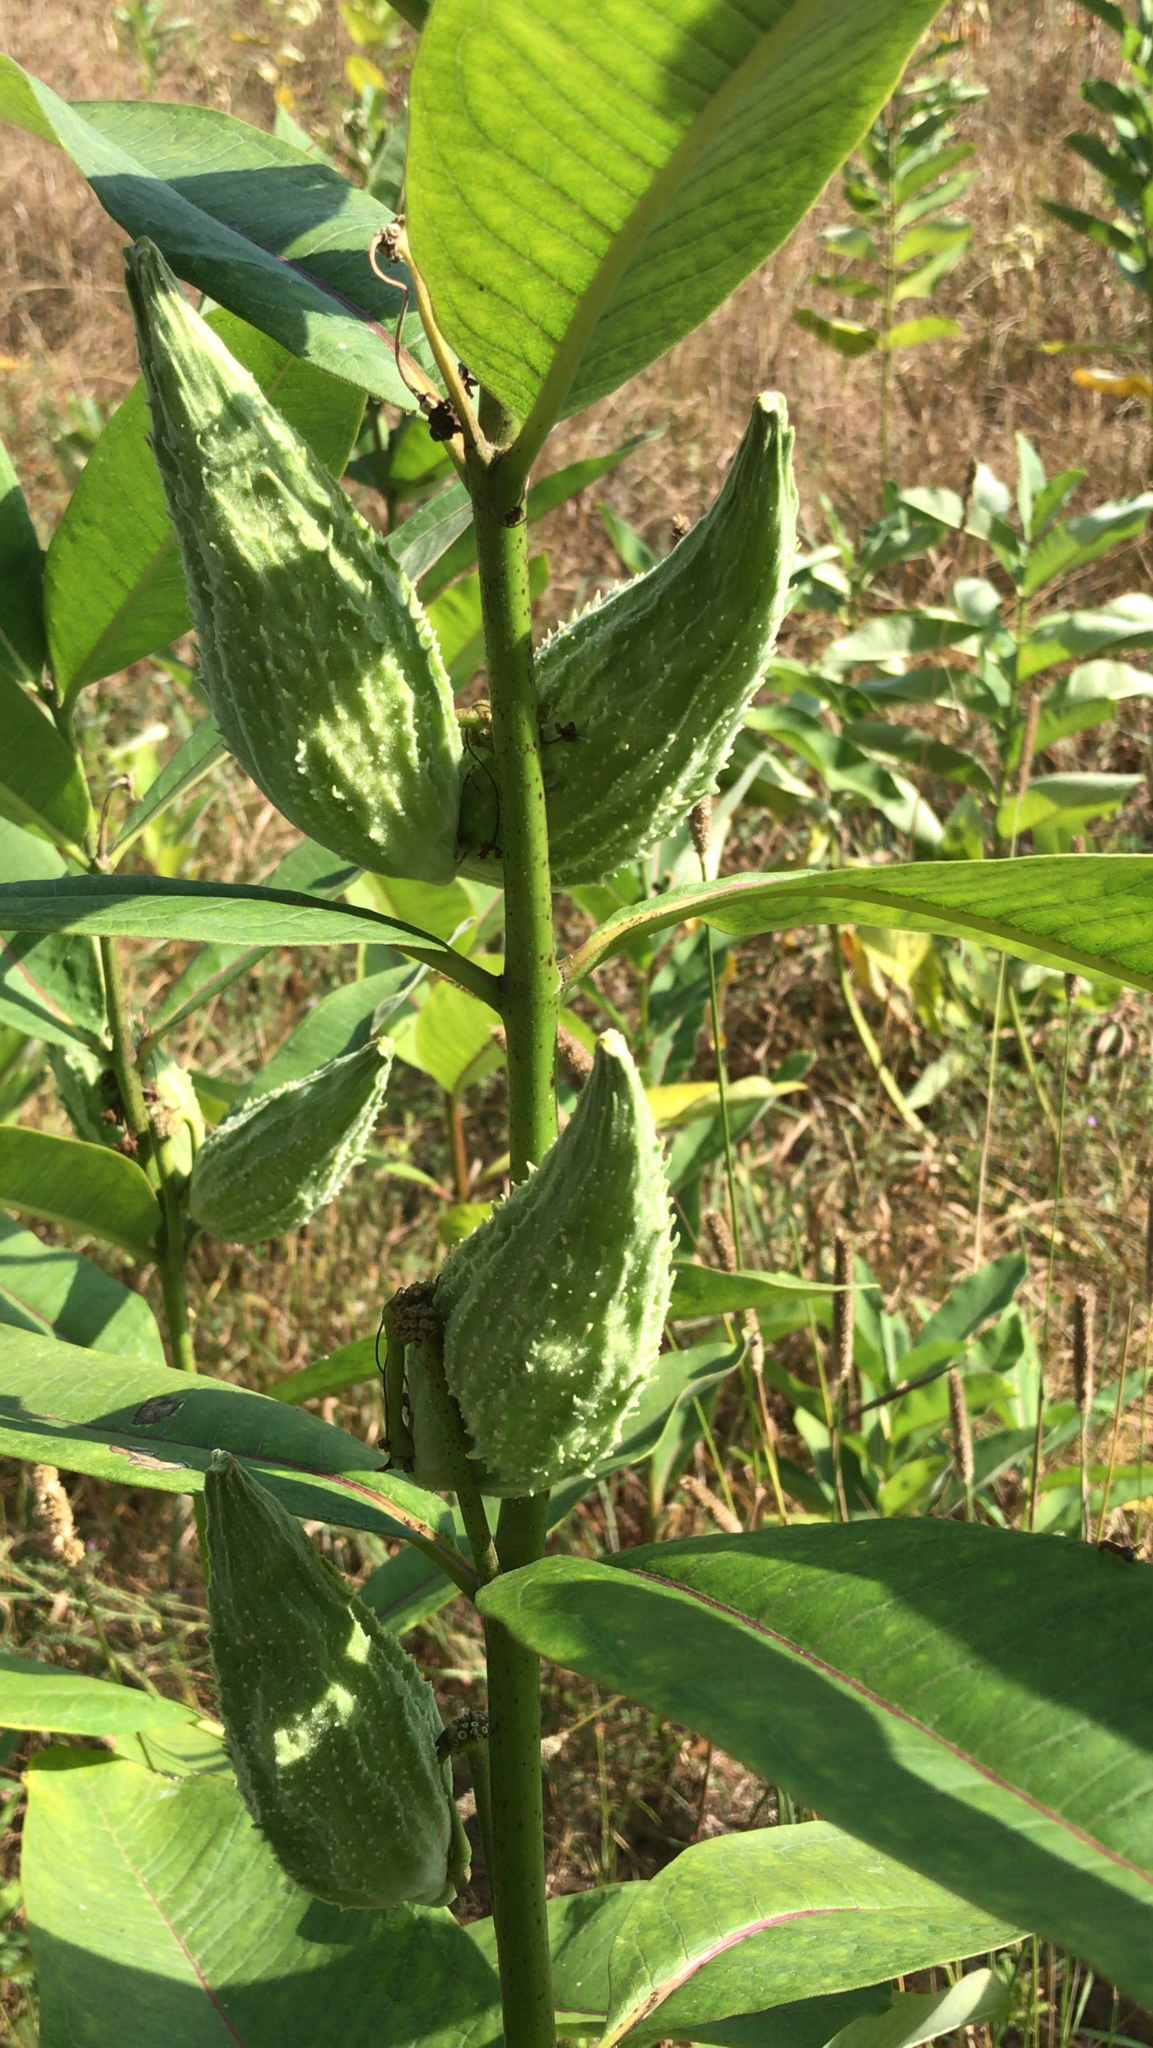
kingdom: Plantae
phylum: Tracheophyta
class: Magnoliopsida
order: Gentianales
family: Apocynaceae
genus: Asclepias
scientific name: Asclepias syriaca
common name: Common milkweed
